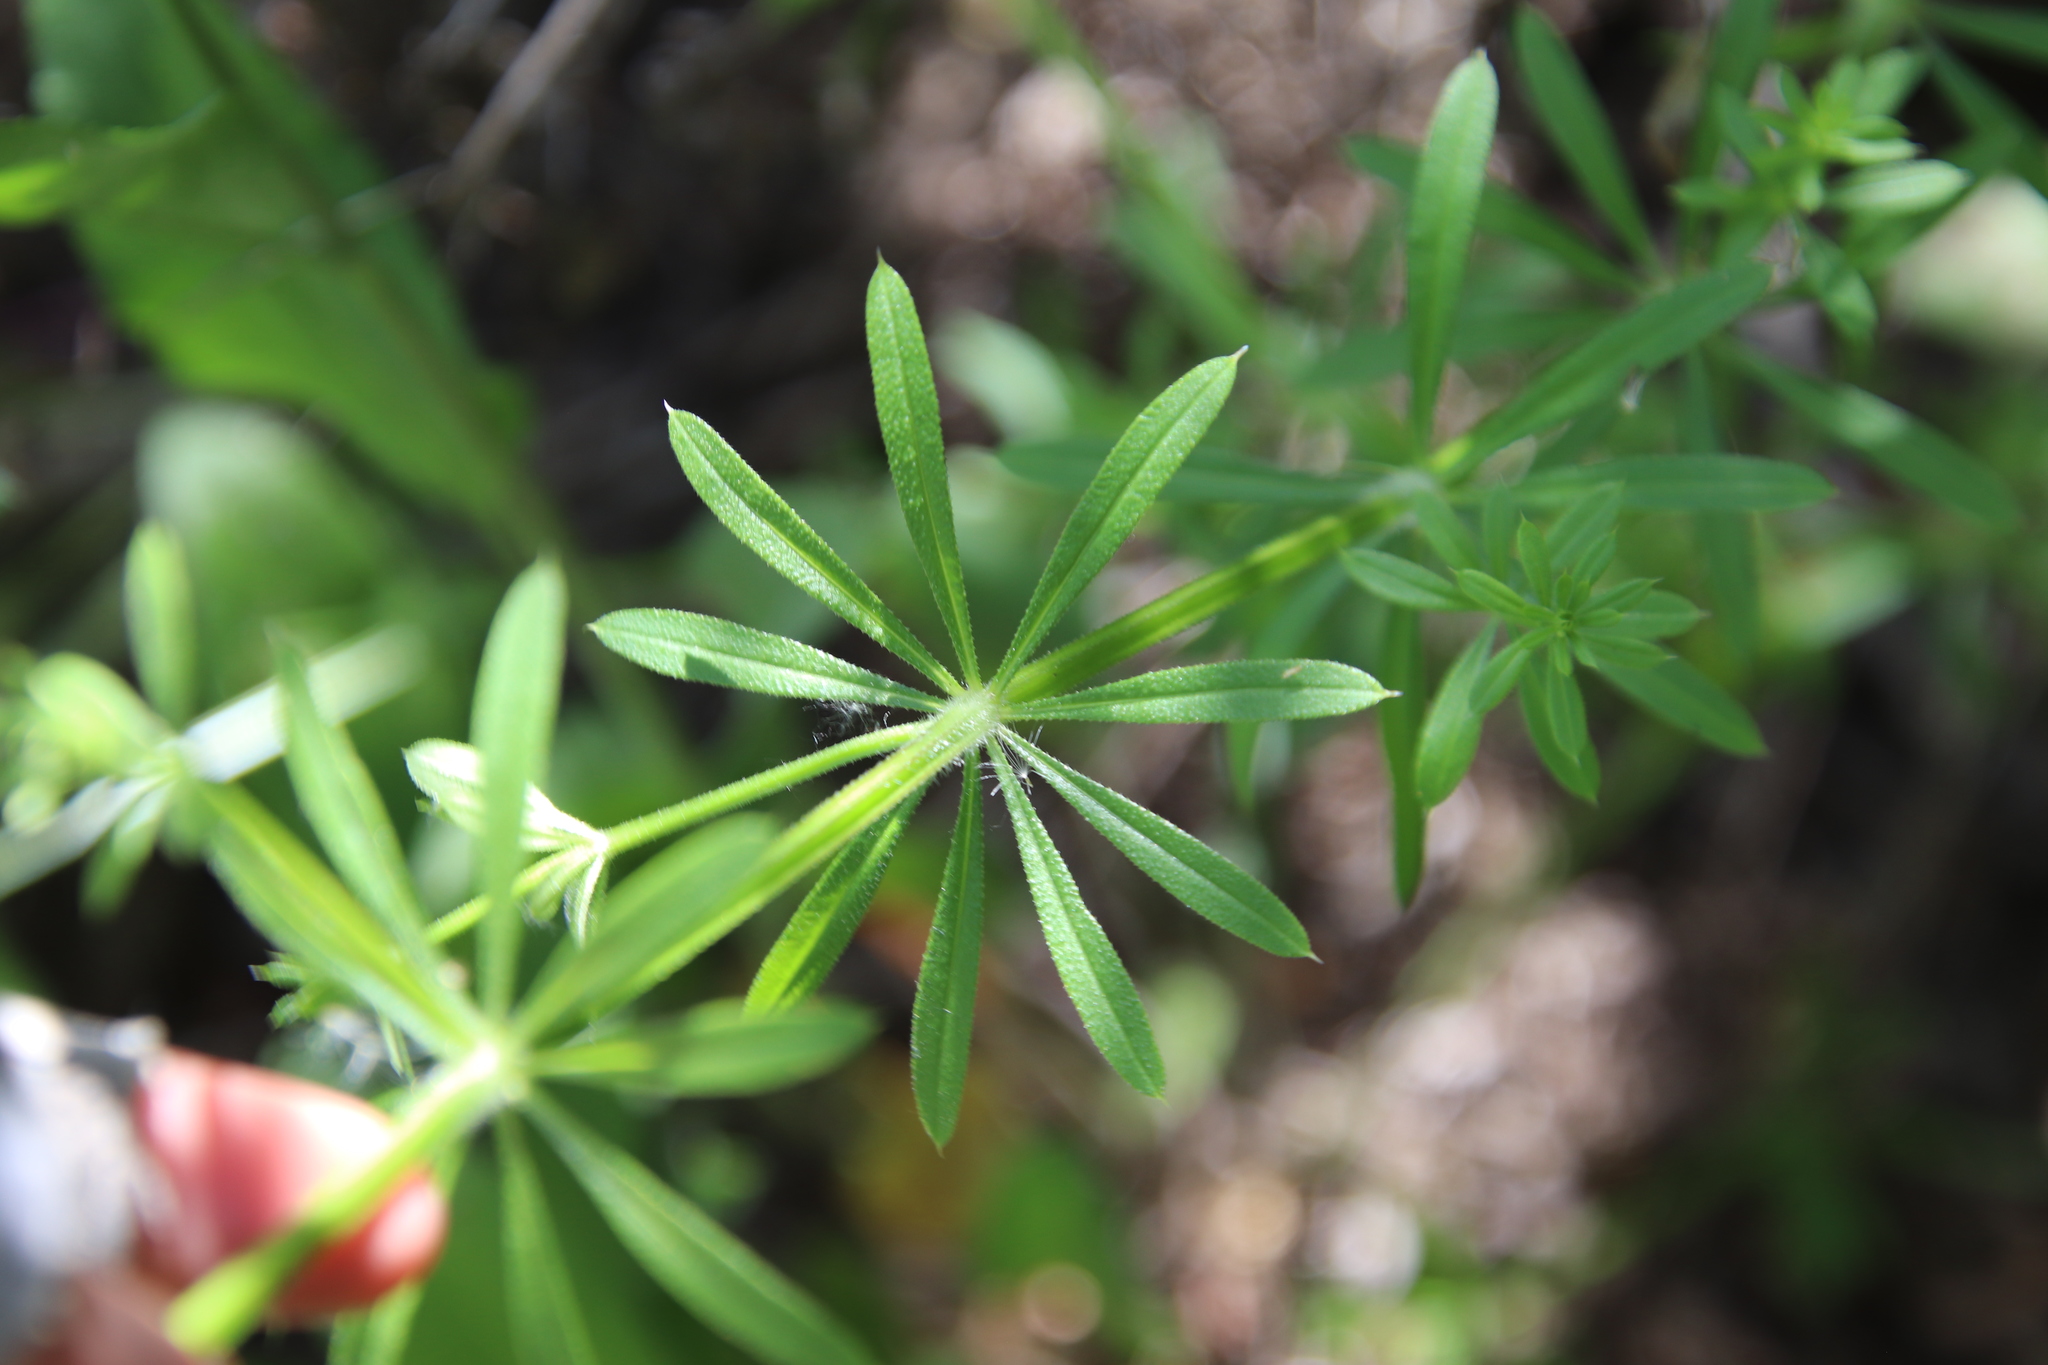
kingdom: Plantae
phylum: Tracheophyta
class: Magnoliopsida
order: Gentianales
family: Rubiaceae
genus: Galium
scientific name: Galium aparine
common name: Cleavers
